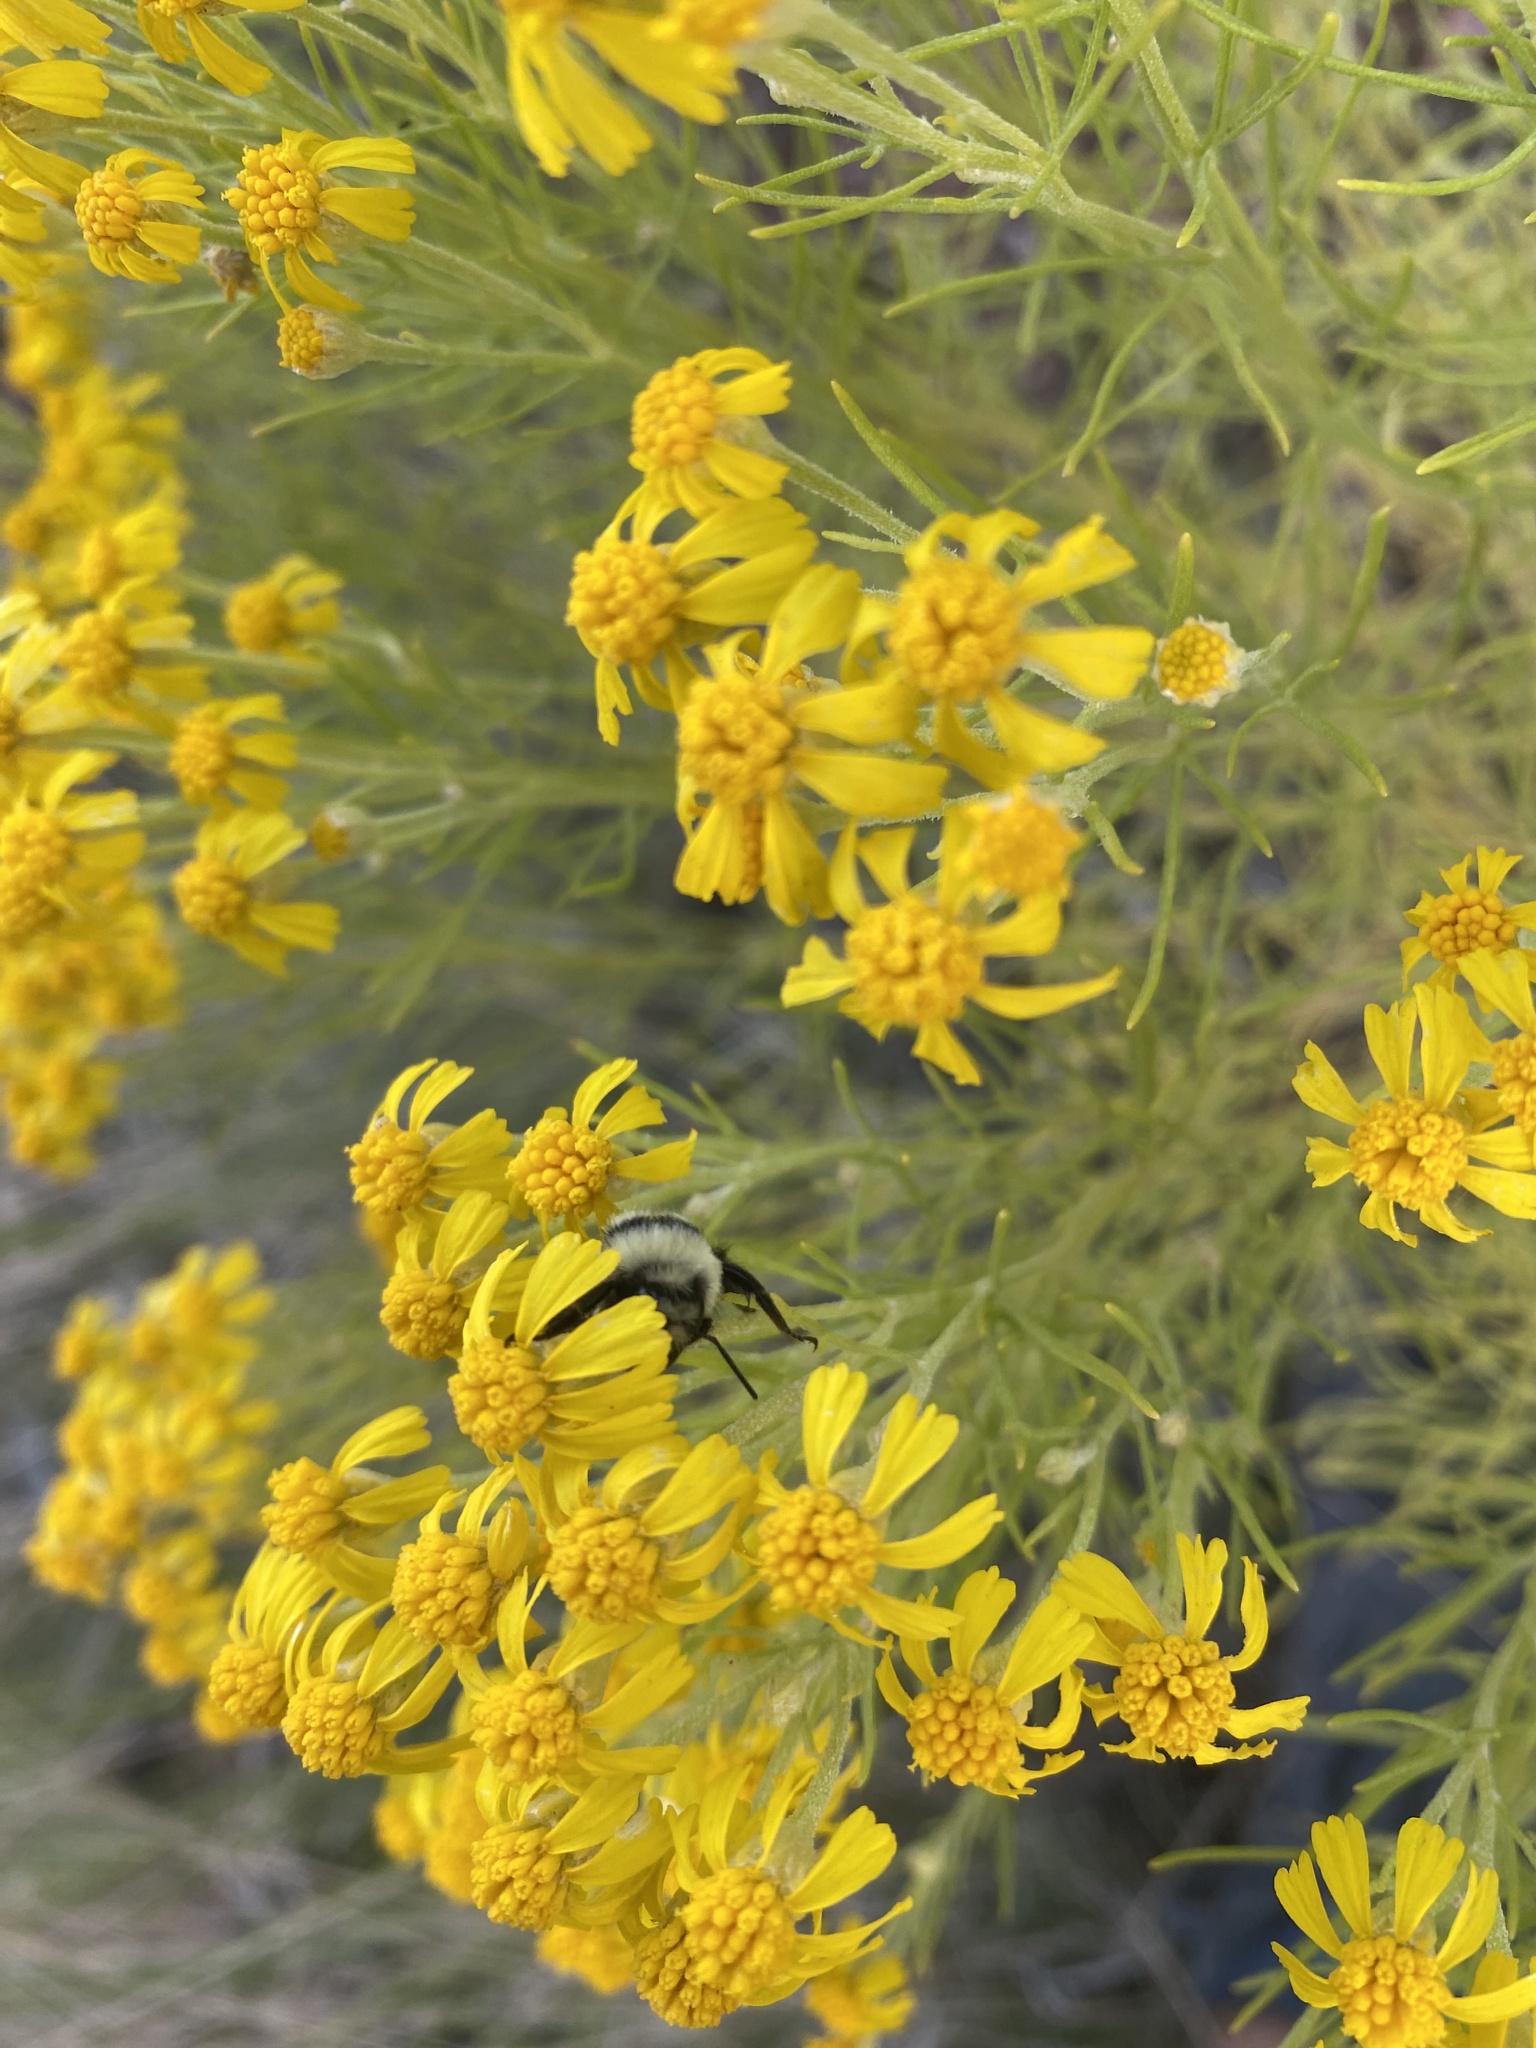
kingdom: Plantae
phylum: Tracheophyta
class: Magnoliopsida
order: Asterales
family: Asteraceae
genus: Hymenoxys
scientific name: Hymenoxys richardsonii
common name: Pingue rubberweed
